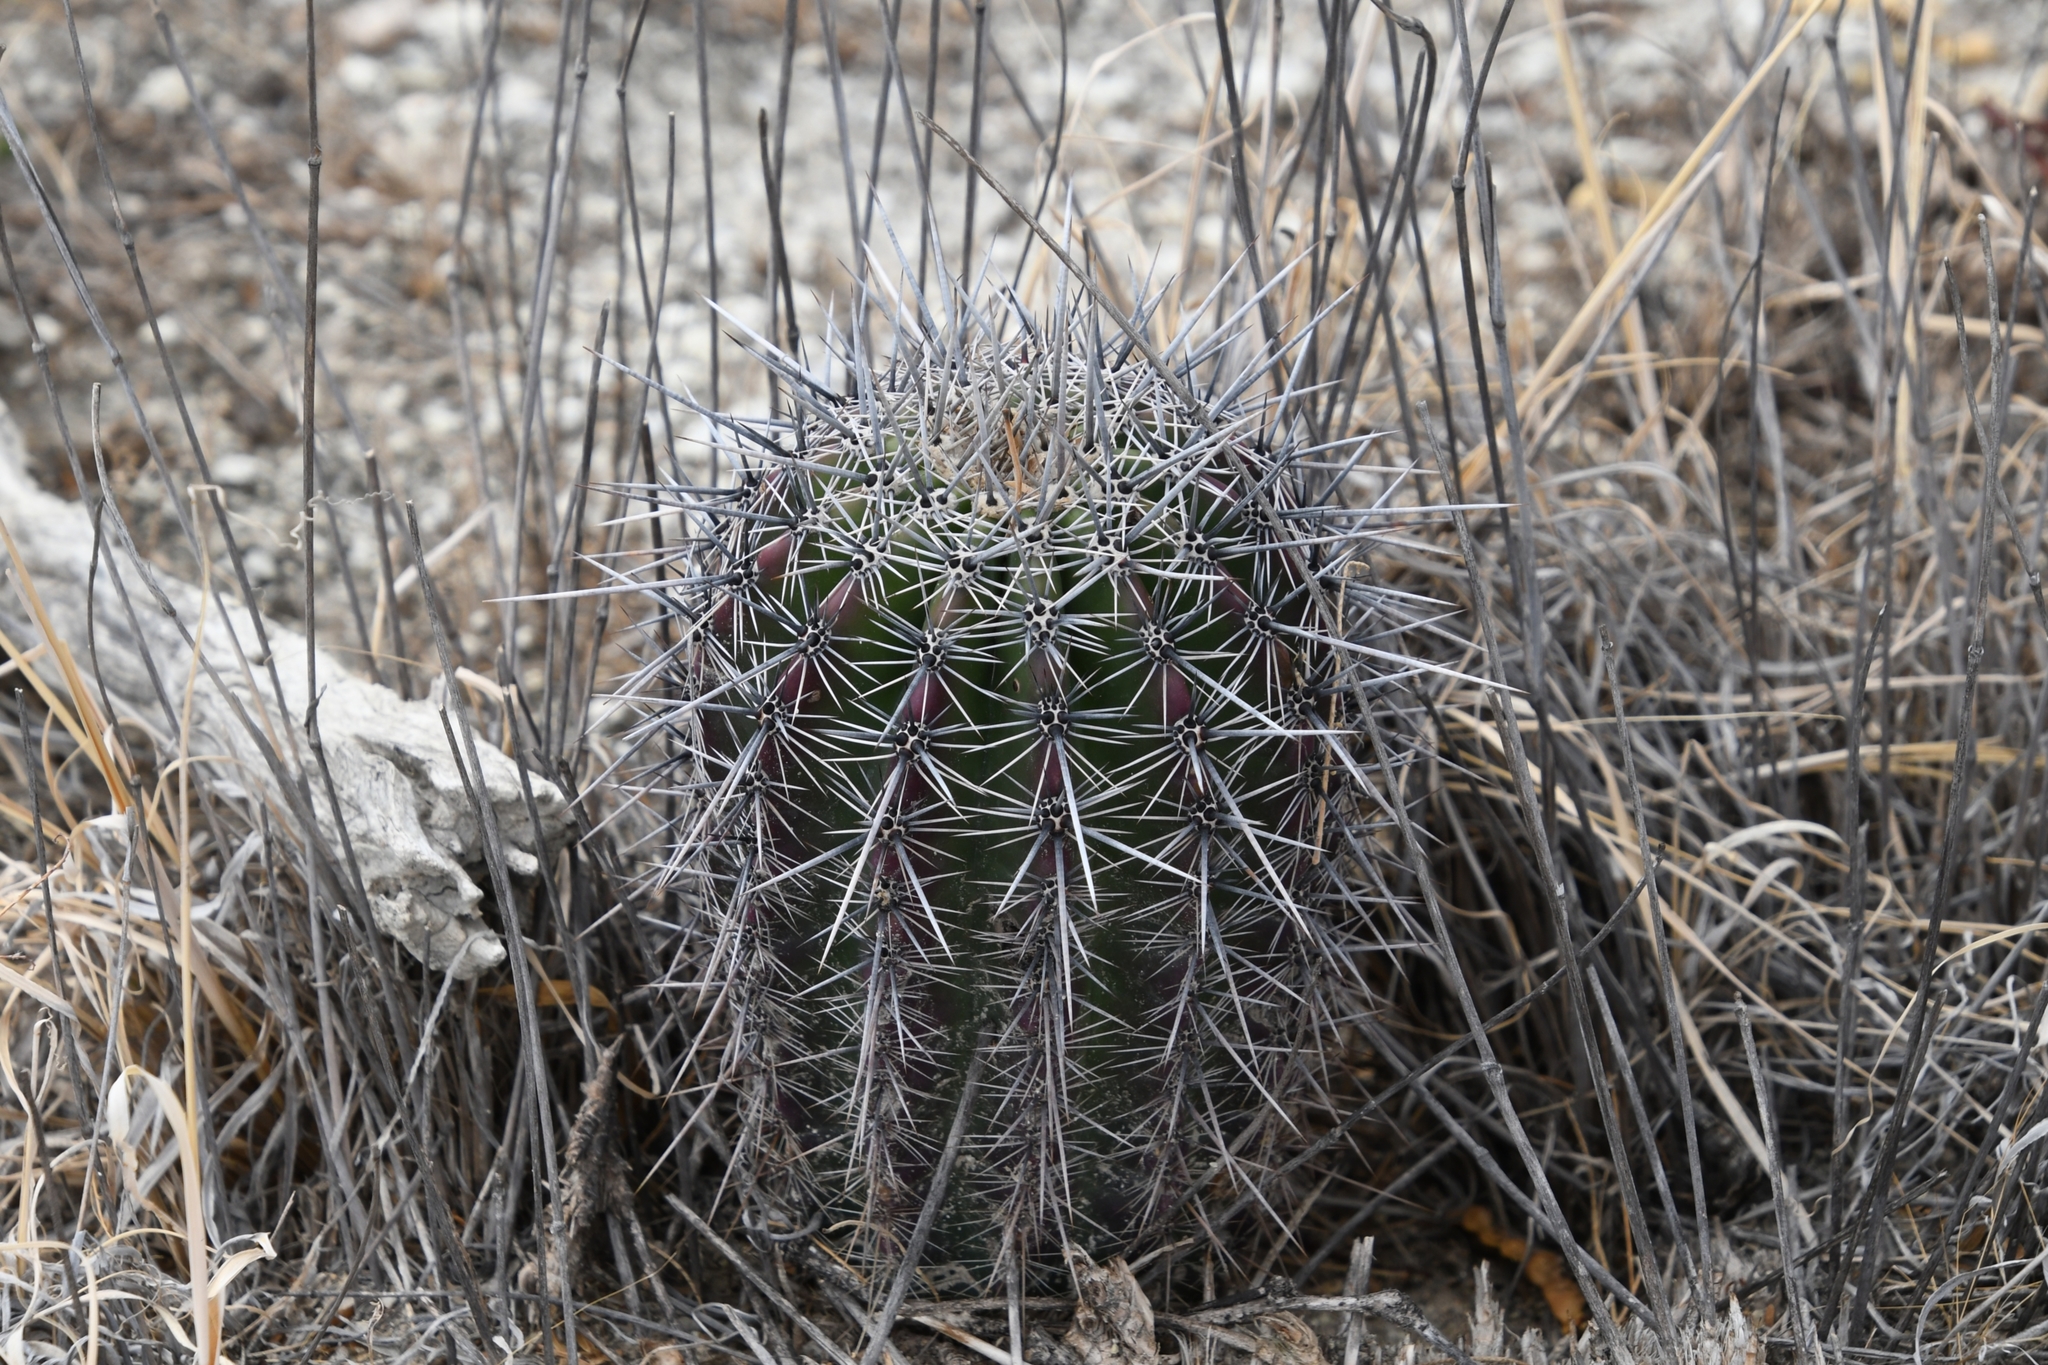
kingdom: Plantae
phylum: Tracheophyta
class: Magnoliopsida
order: Caryophyllales
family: Cactaceae
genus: Carnegiea
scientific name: Carnegiea gigantea
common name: Saguaro
